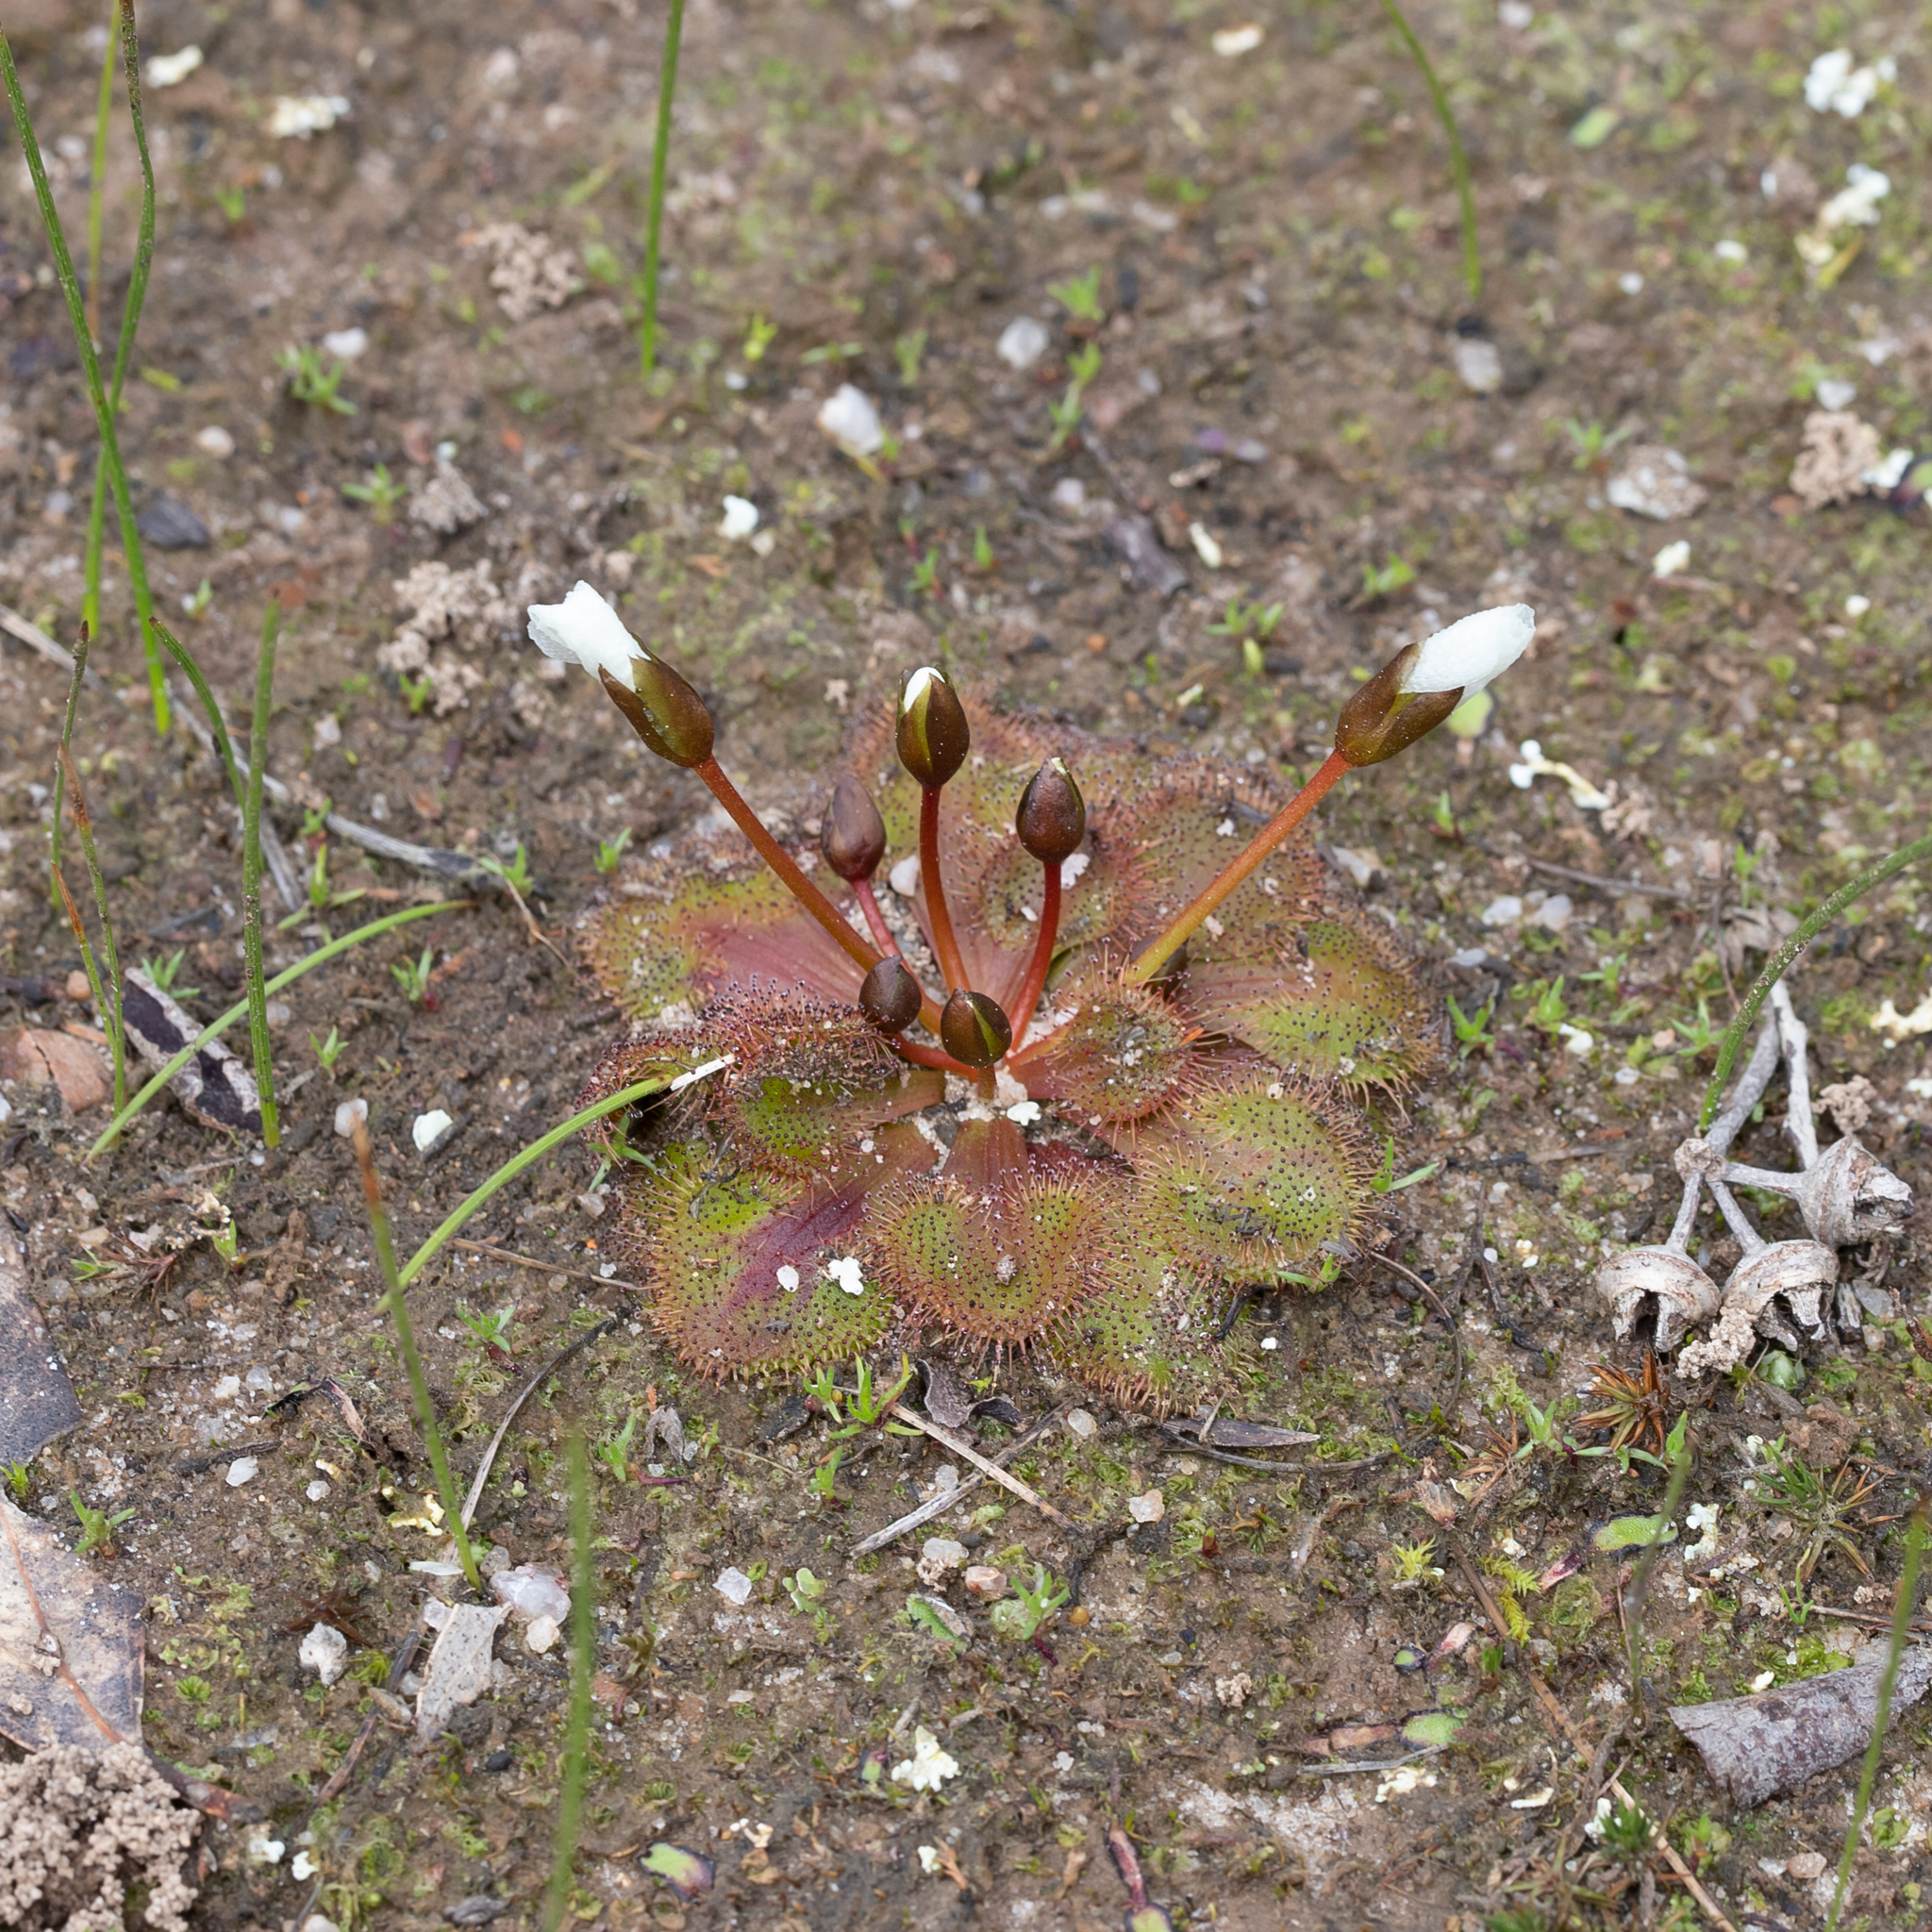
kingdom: Plantae
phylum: Tracheophyta
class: Magnoliopsida
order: Caryophyllales
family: Droseraceae
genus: Drosera
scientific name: Drosera whittakeri
